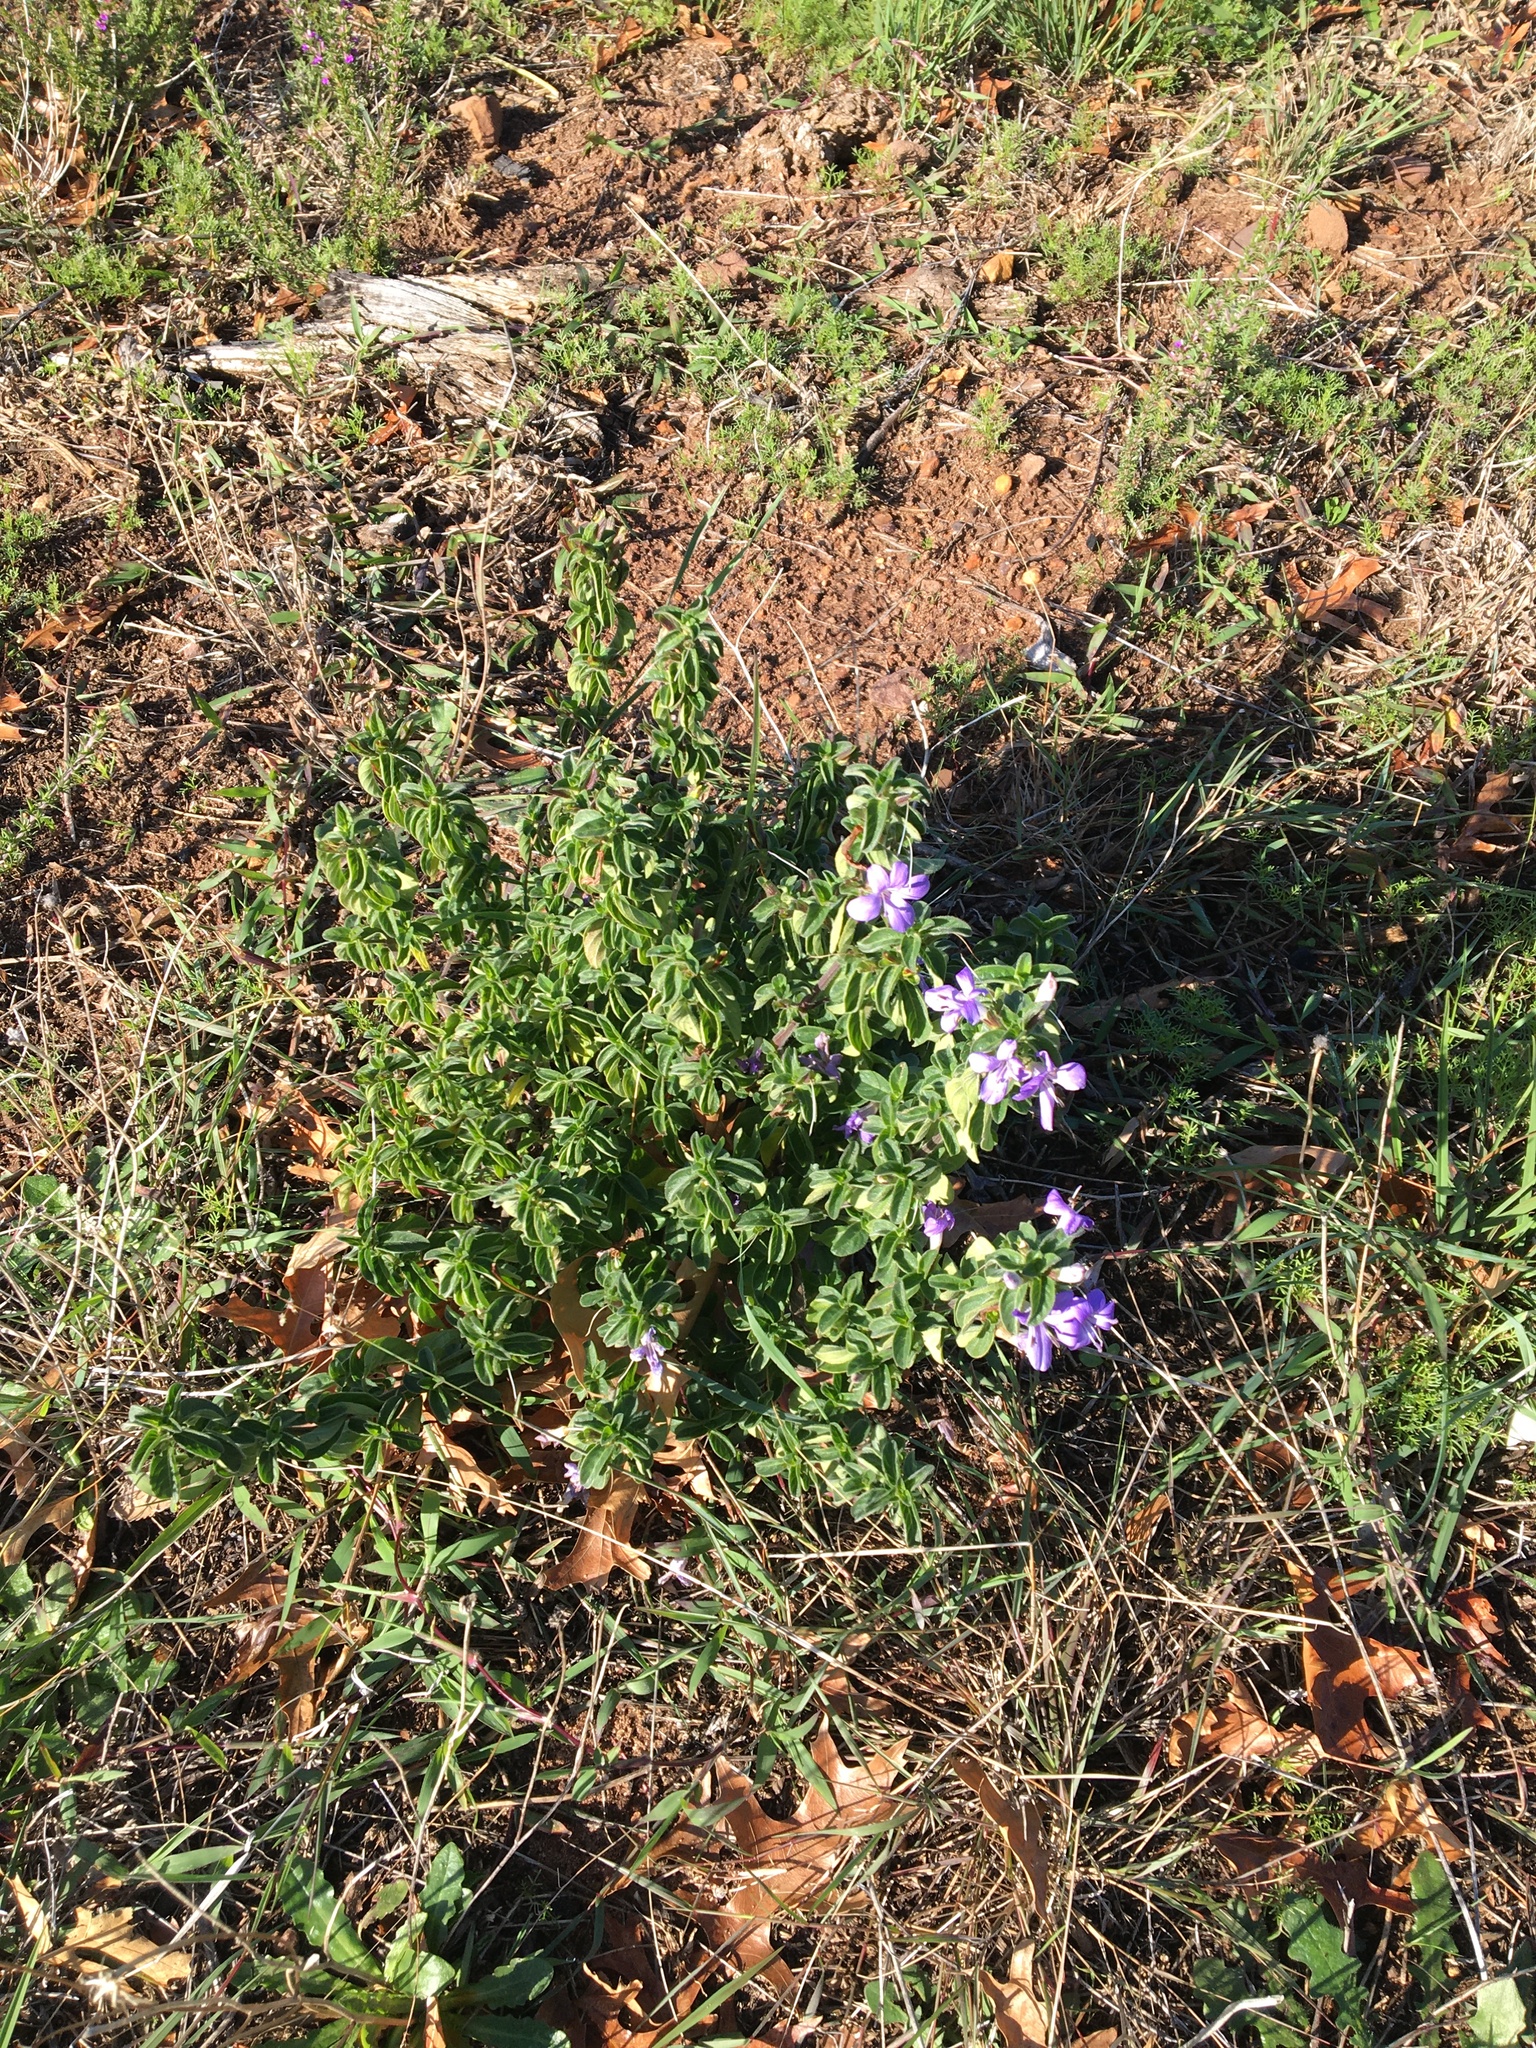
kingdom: Plantae
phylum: Tracheophyta
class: Magnoliopsida
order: Lamiales
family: Acanthaceae
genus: Barleria
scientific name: Barleria obtusa
